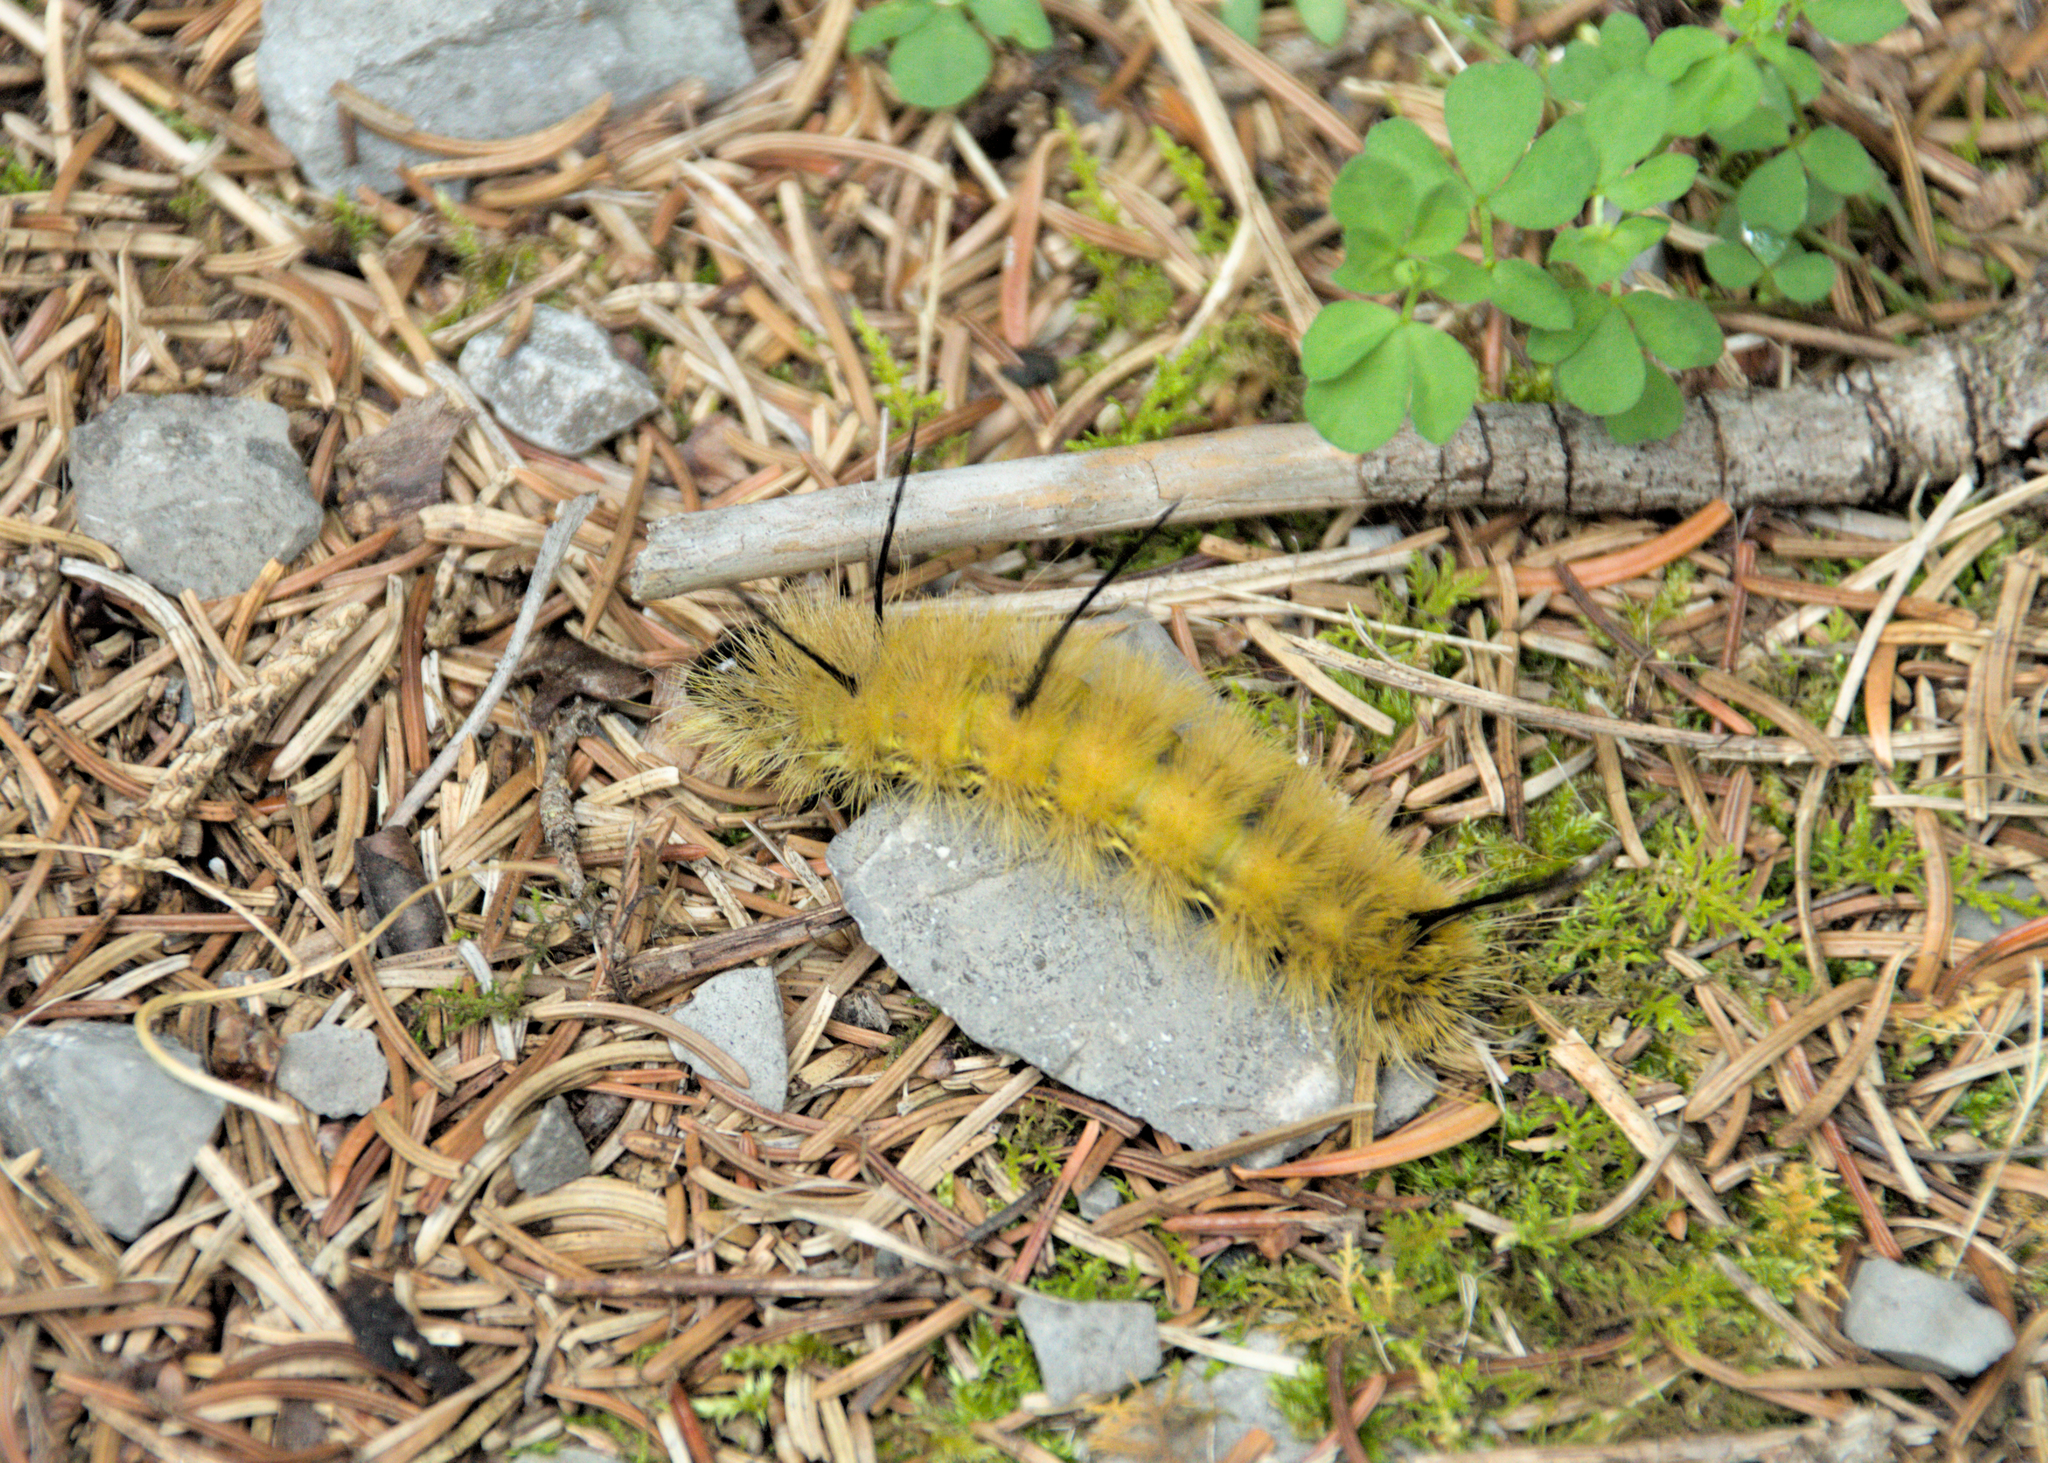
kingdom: Animalia
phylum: Arthropoda
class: Insecta
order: Lepidoptera
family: Noctuidae
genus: Acronicta
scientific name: Acronicta americana
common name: American dagger
